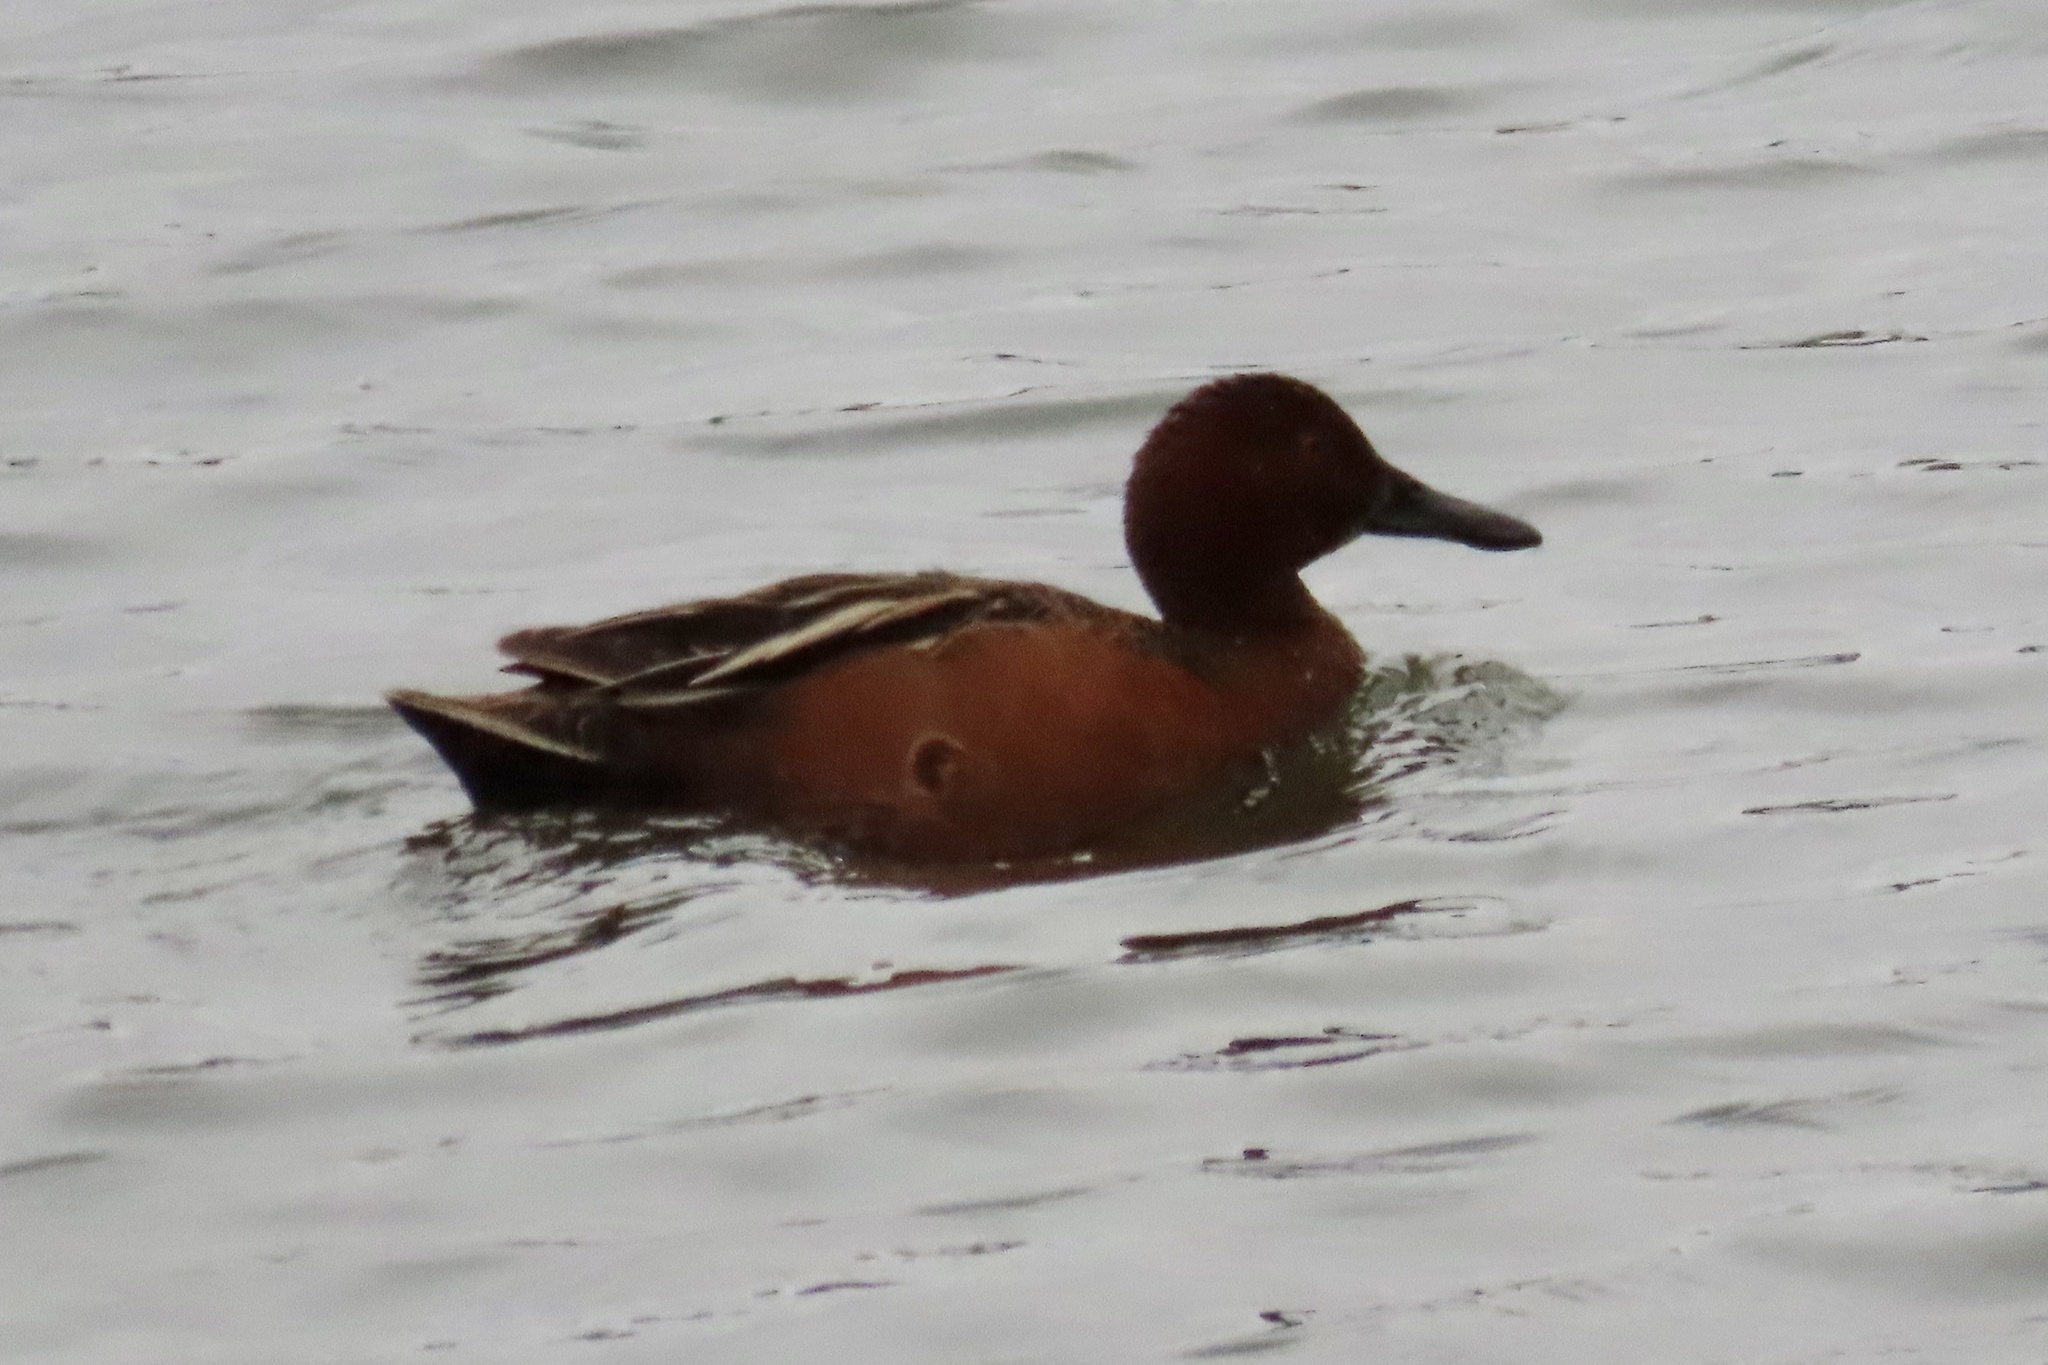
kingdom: Animalia
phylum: Chordata
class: Aves
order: Anseriformes
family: Anatidae
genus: Spatula
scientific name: Spatula cyanoptera
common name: Cinnamon teal
